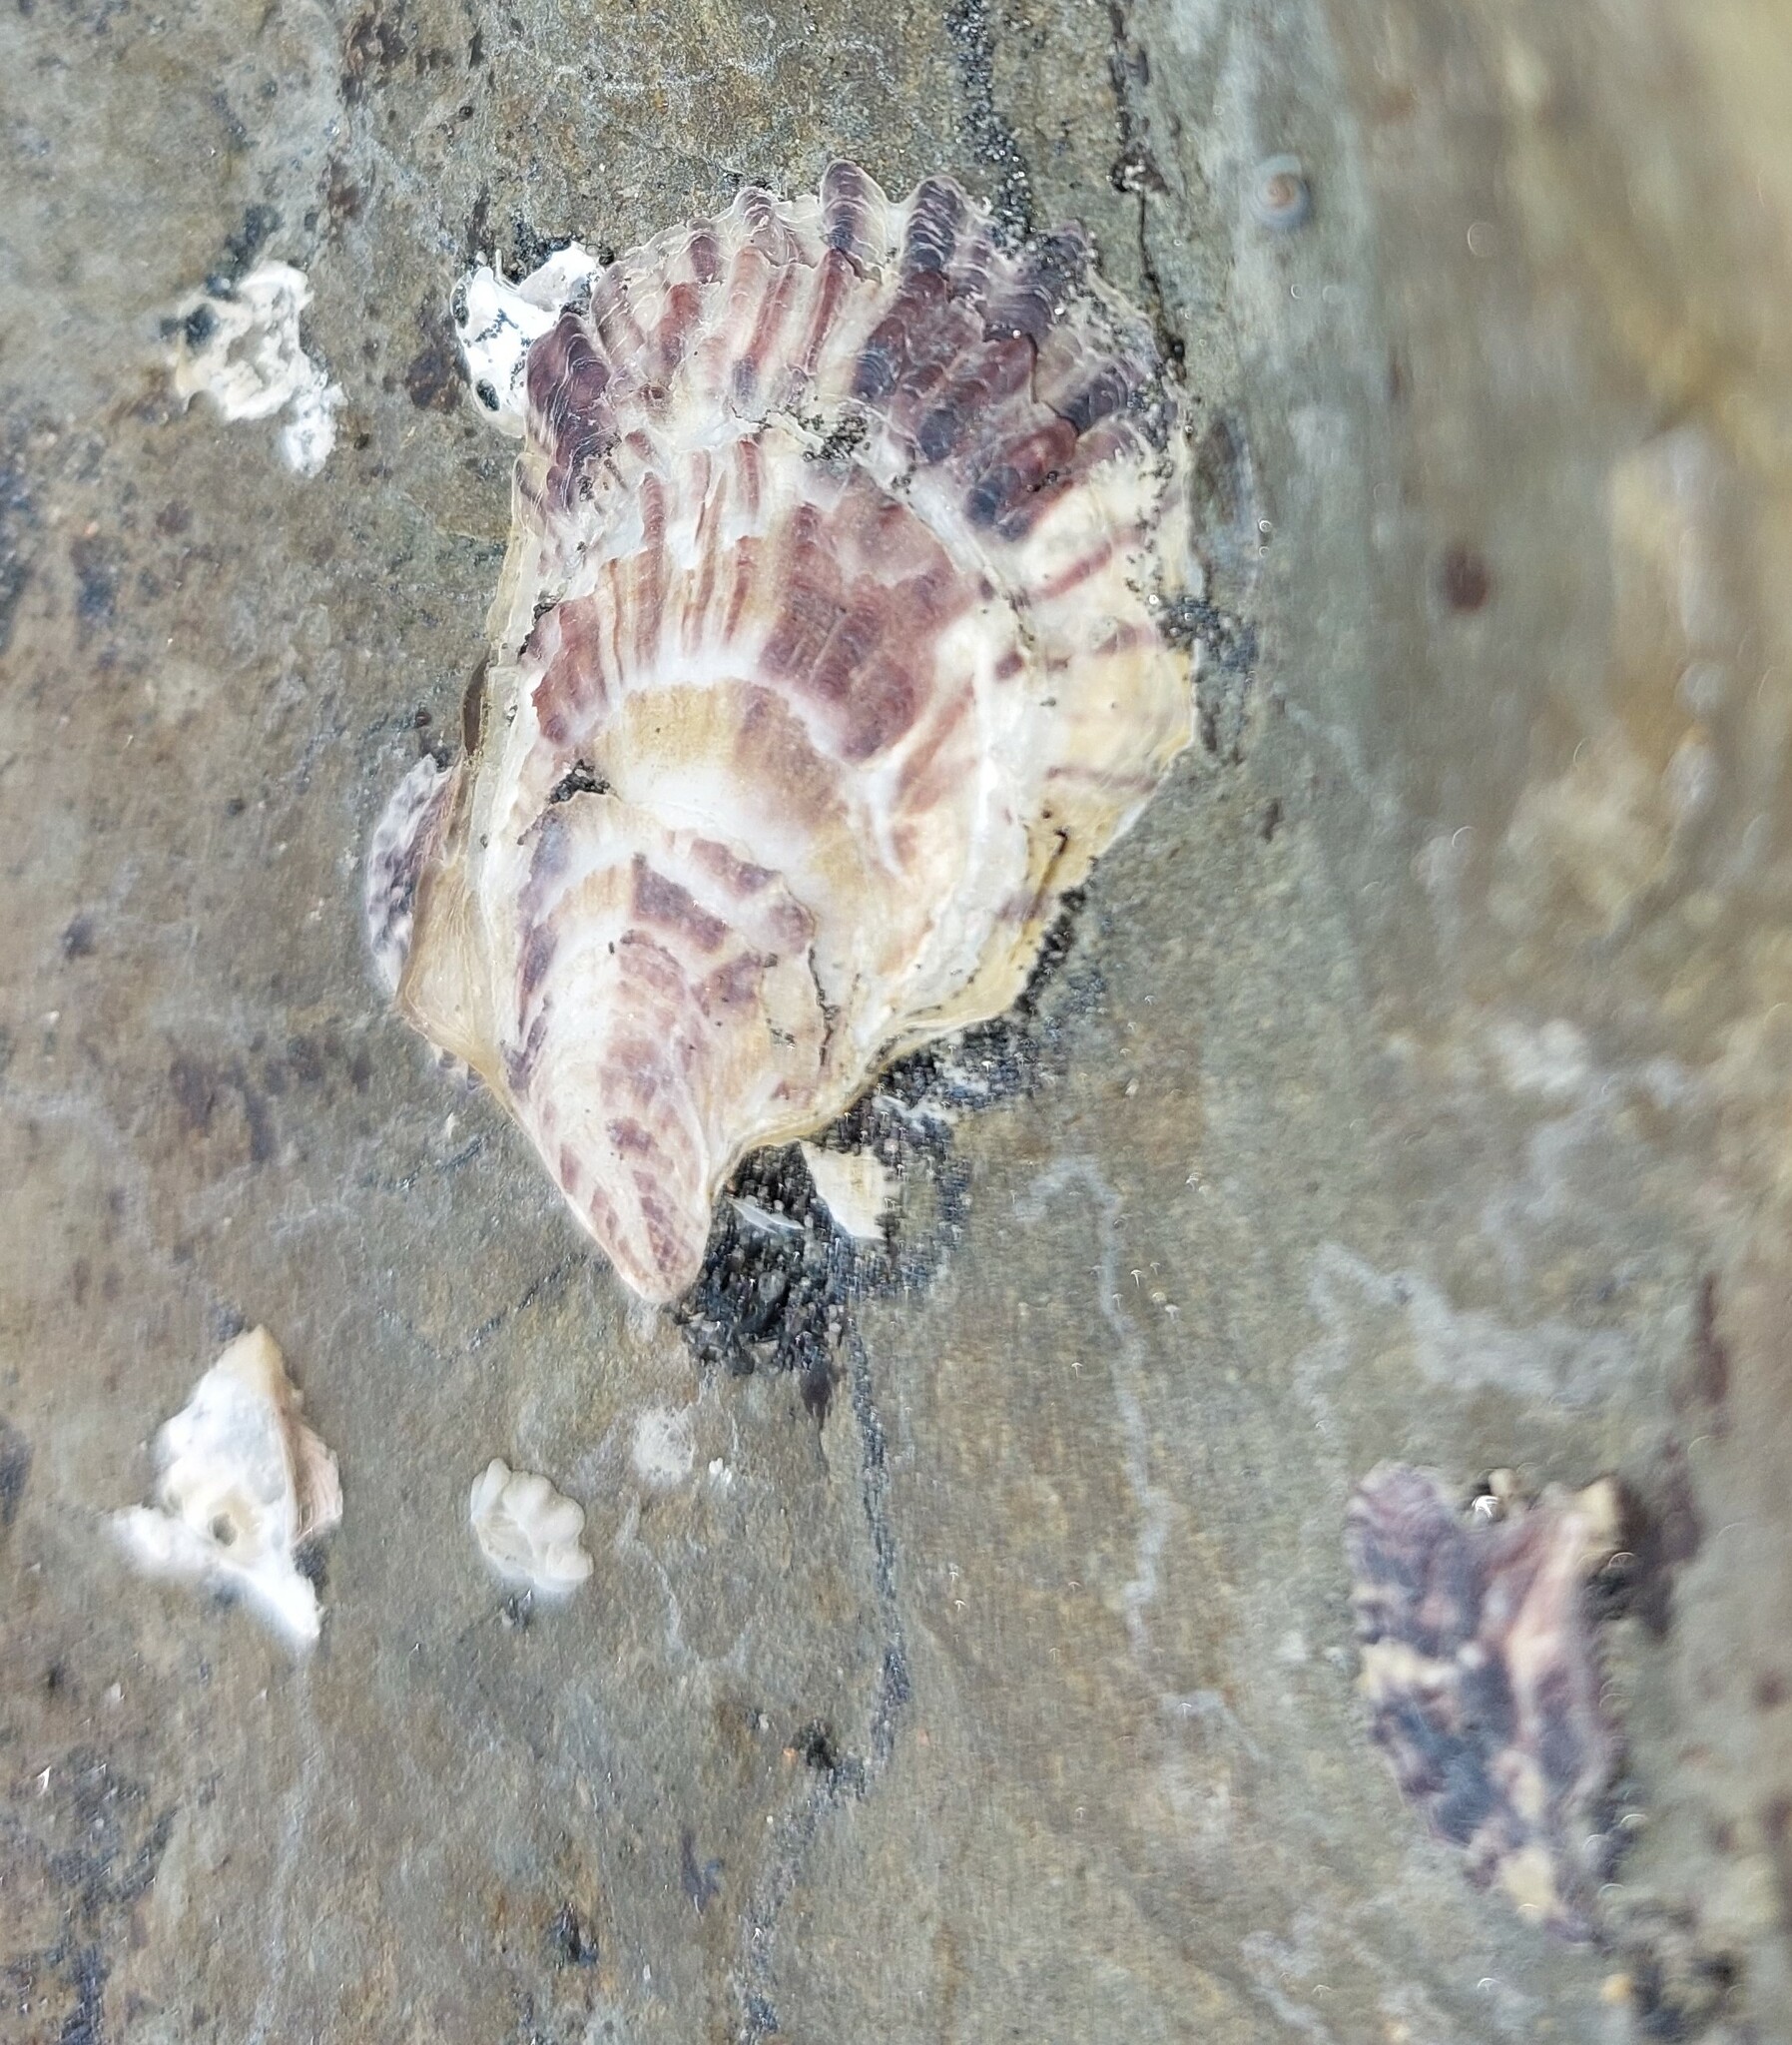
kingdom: Animalia
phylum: Mollusca
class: Bivalvia
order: Ostreida
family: Ostreidae
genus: Magallana
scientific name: Magallana gigas
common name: Pacific oyster
